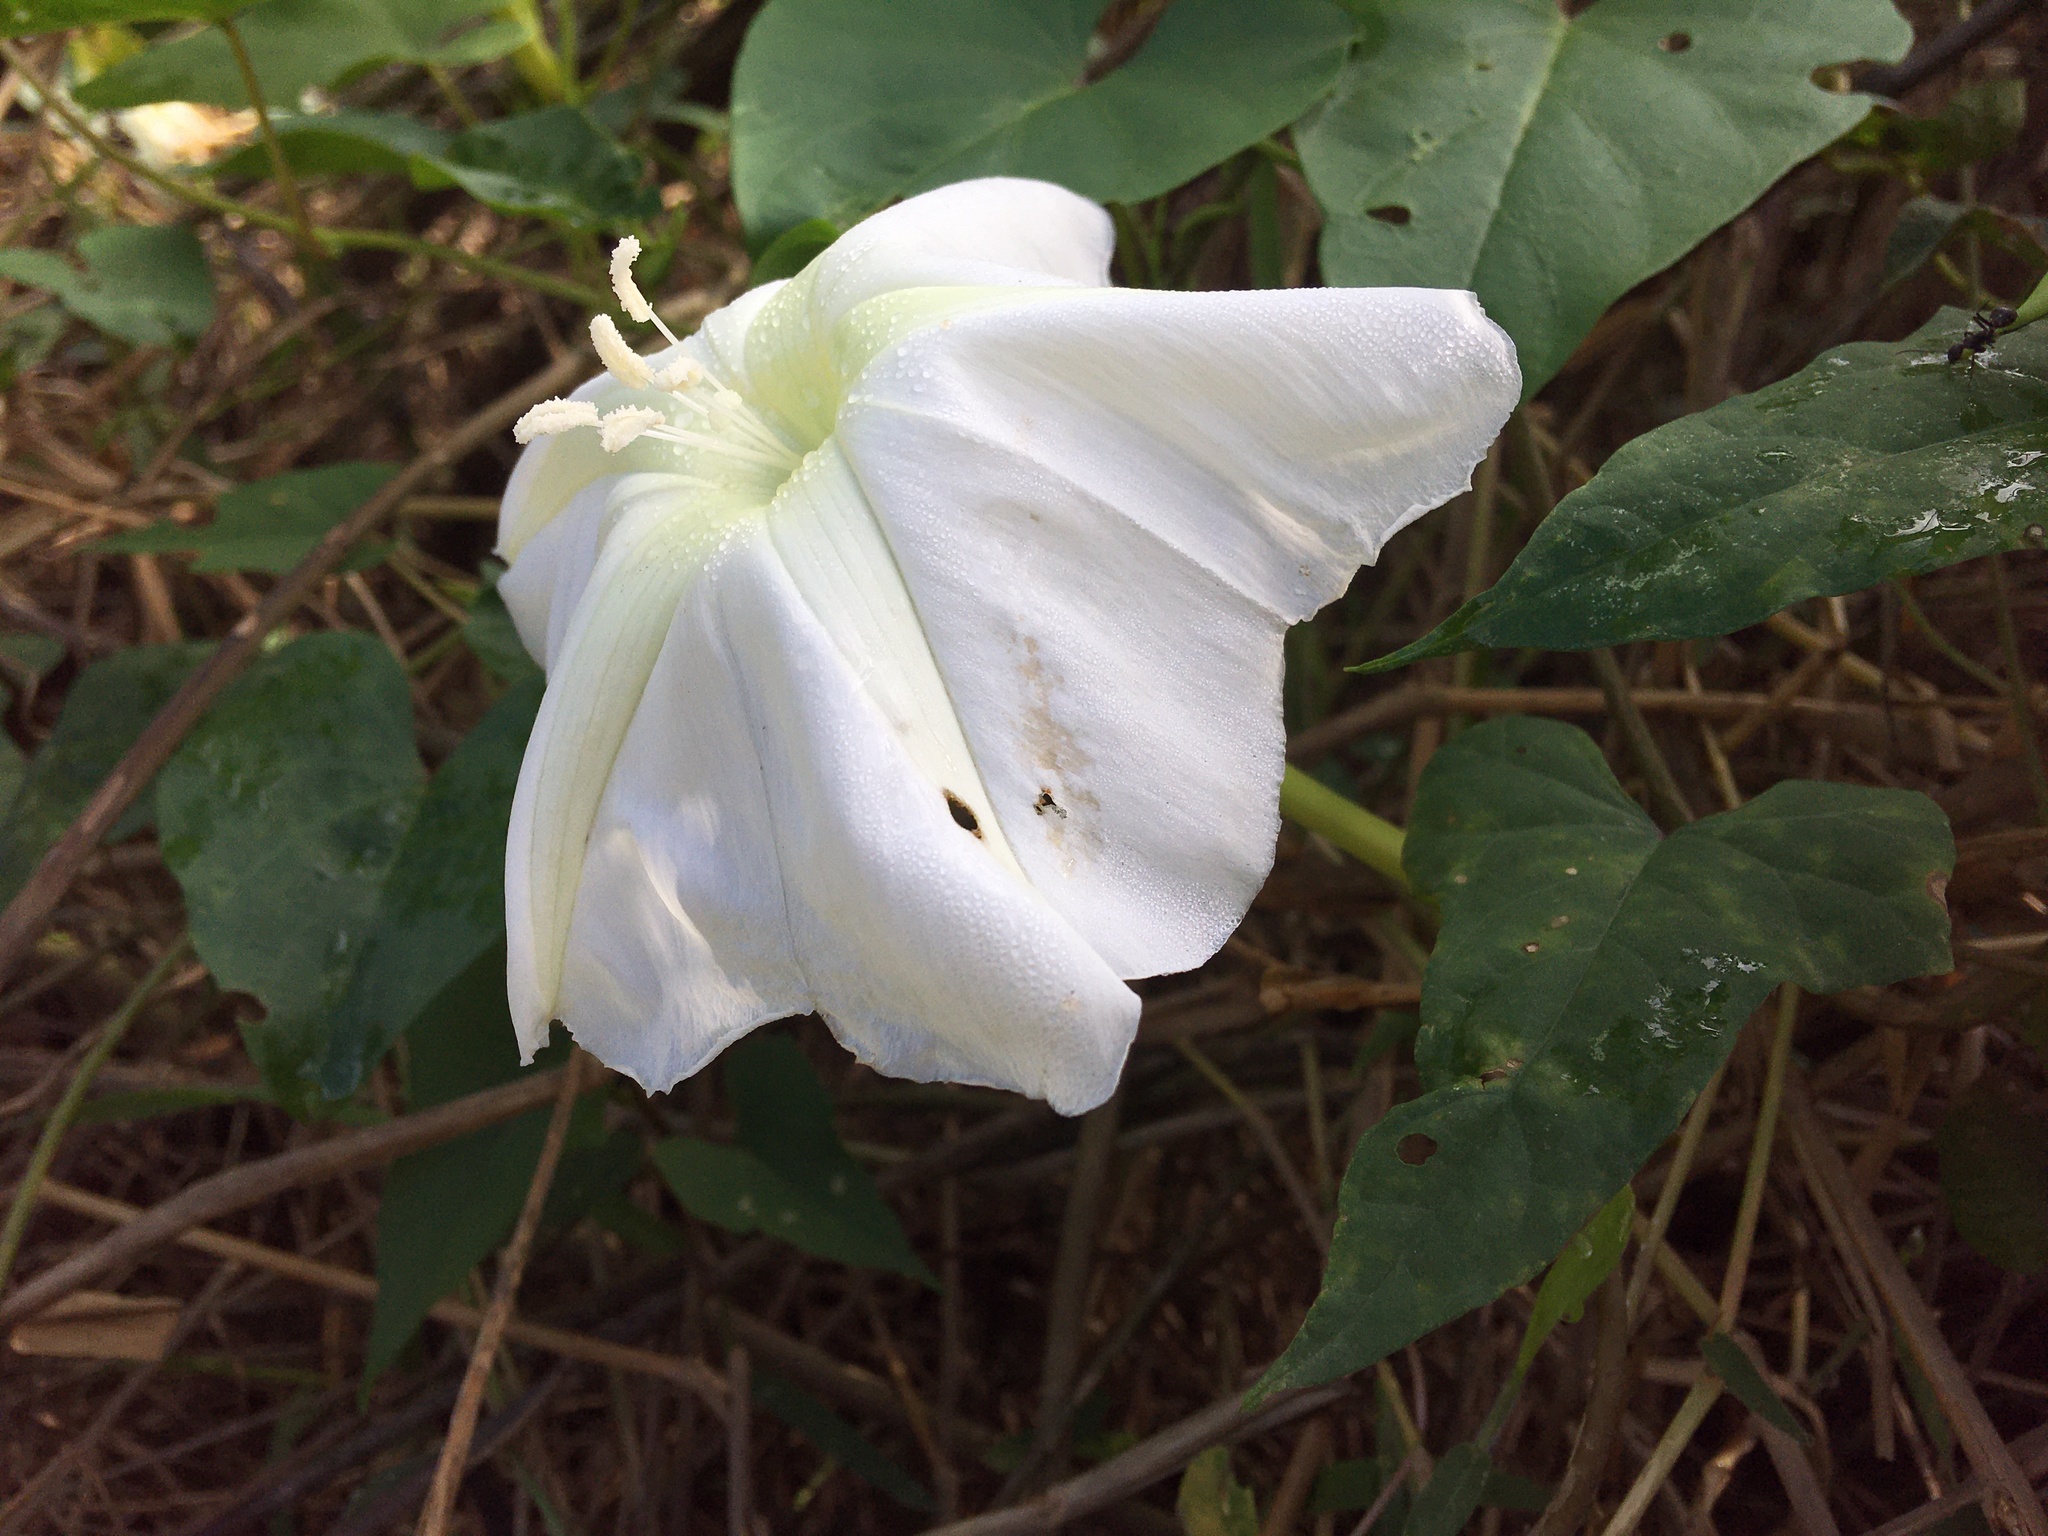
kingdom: Plantae
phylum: Tracheophyta
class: Magnoliopsida
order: Solanales
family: Convolvulaceae
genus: Ipomoea
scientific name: Ipomoea alba
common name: Moonflower
